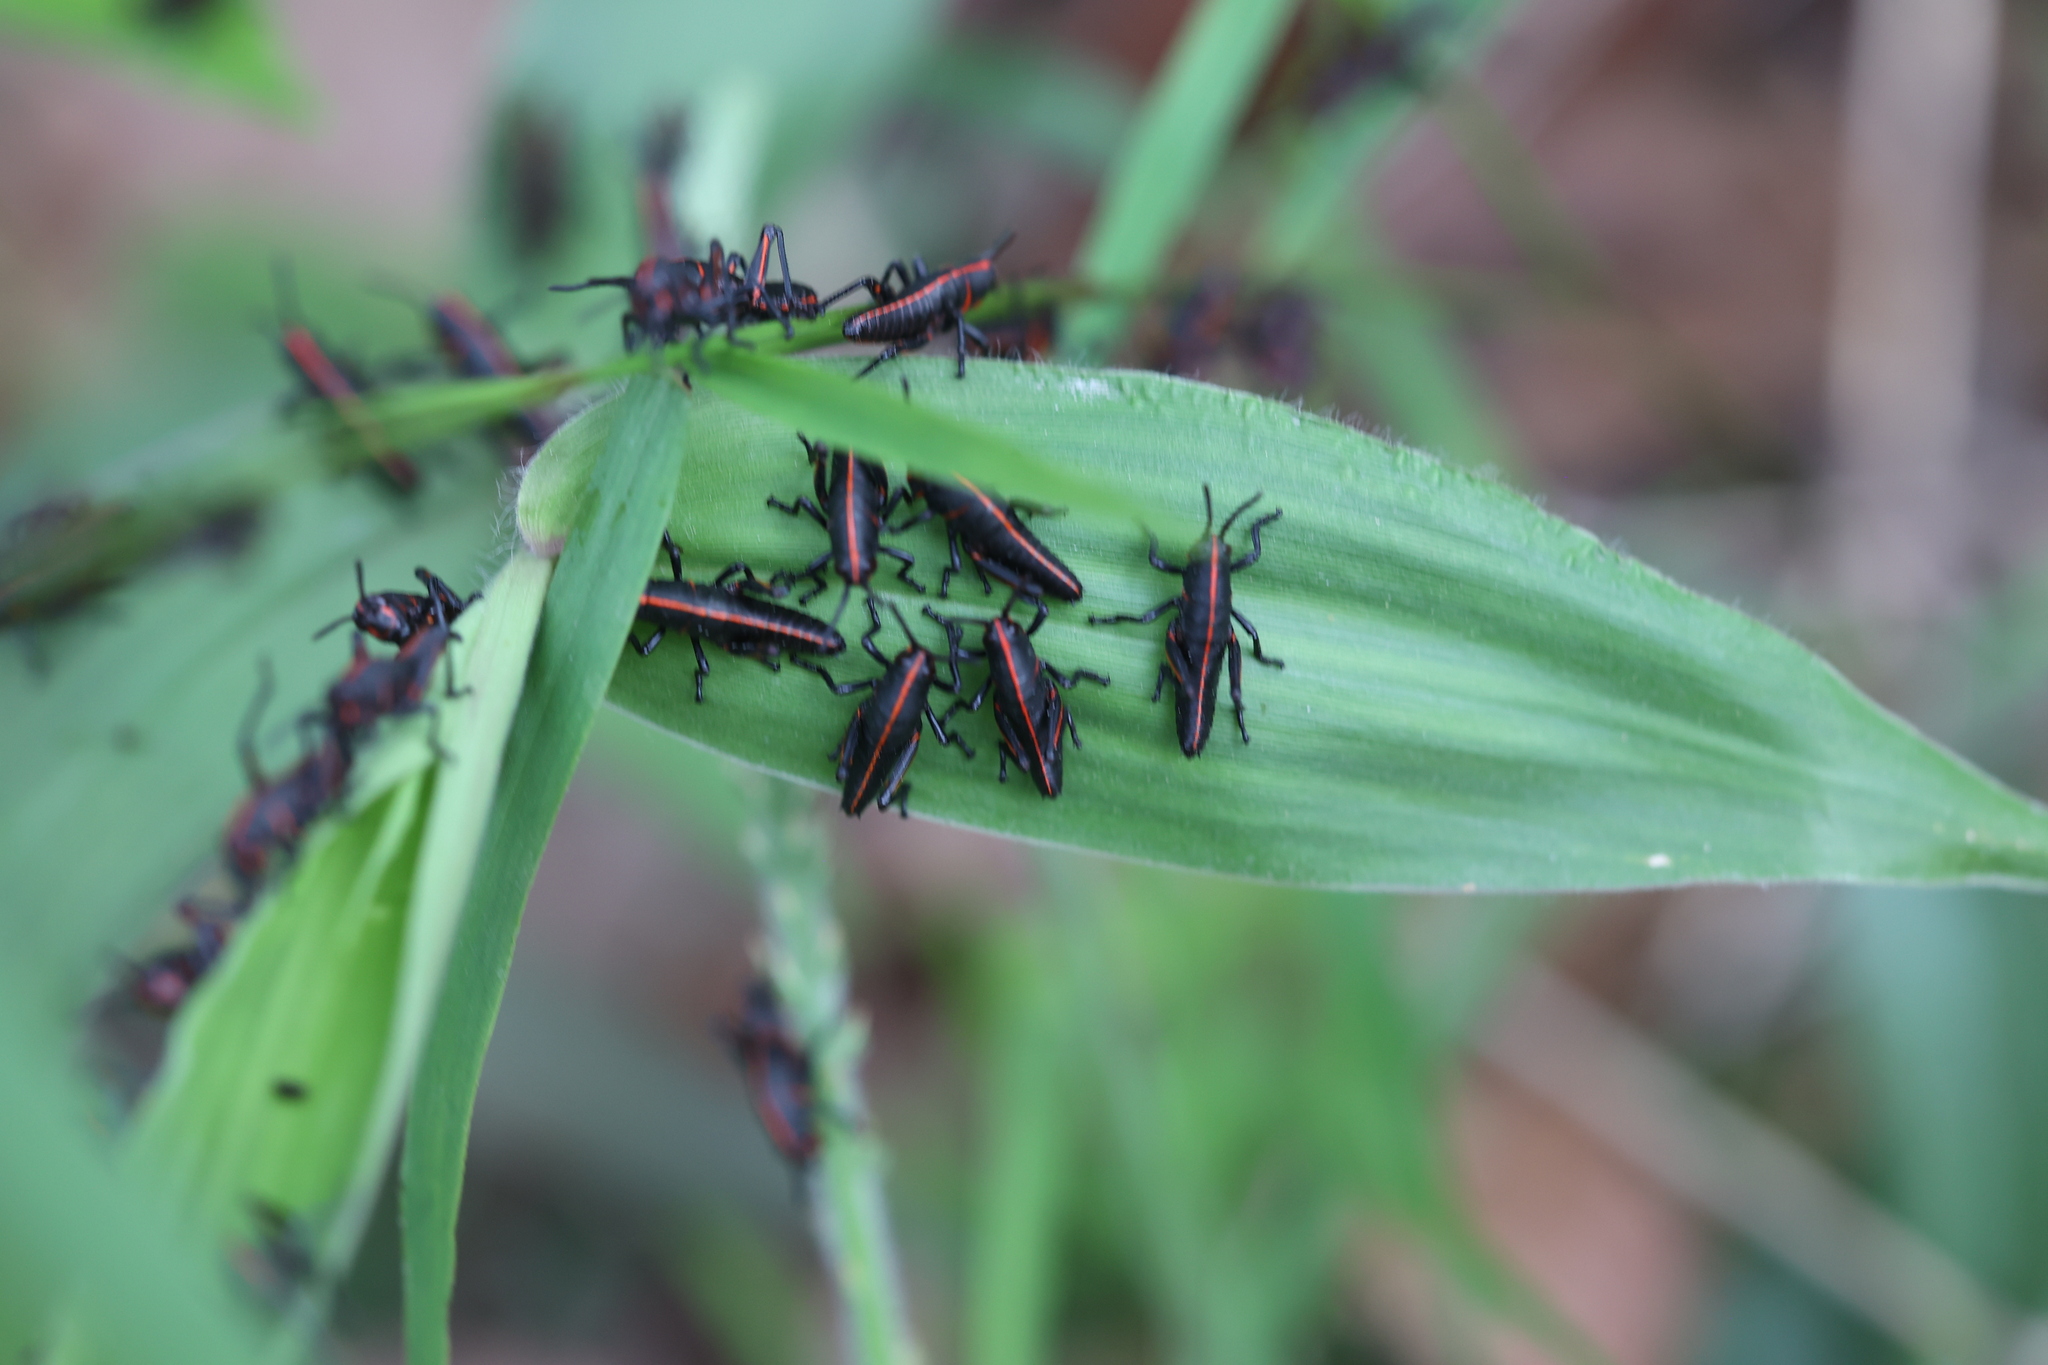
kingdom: Animalia
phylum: Arthropoda
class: Insecta
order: Orthoptera
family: Romaleidae
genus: Romalea
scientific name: Romalea microptera
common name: Eastern lubber grasshopper
